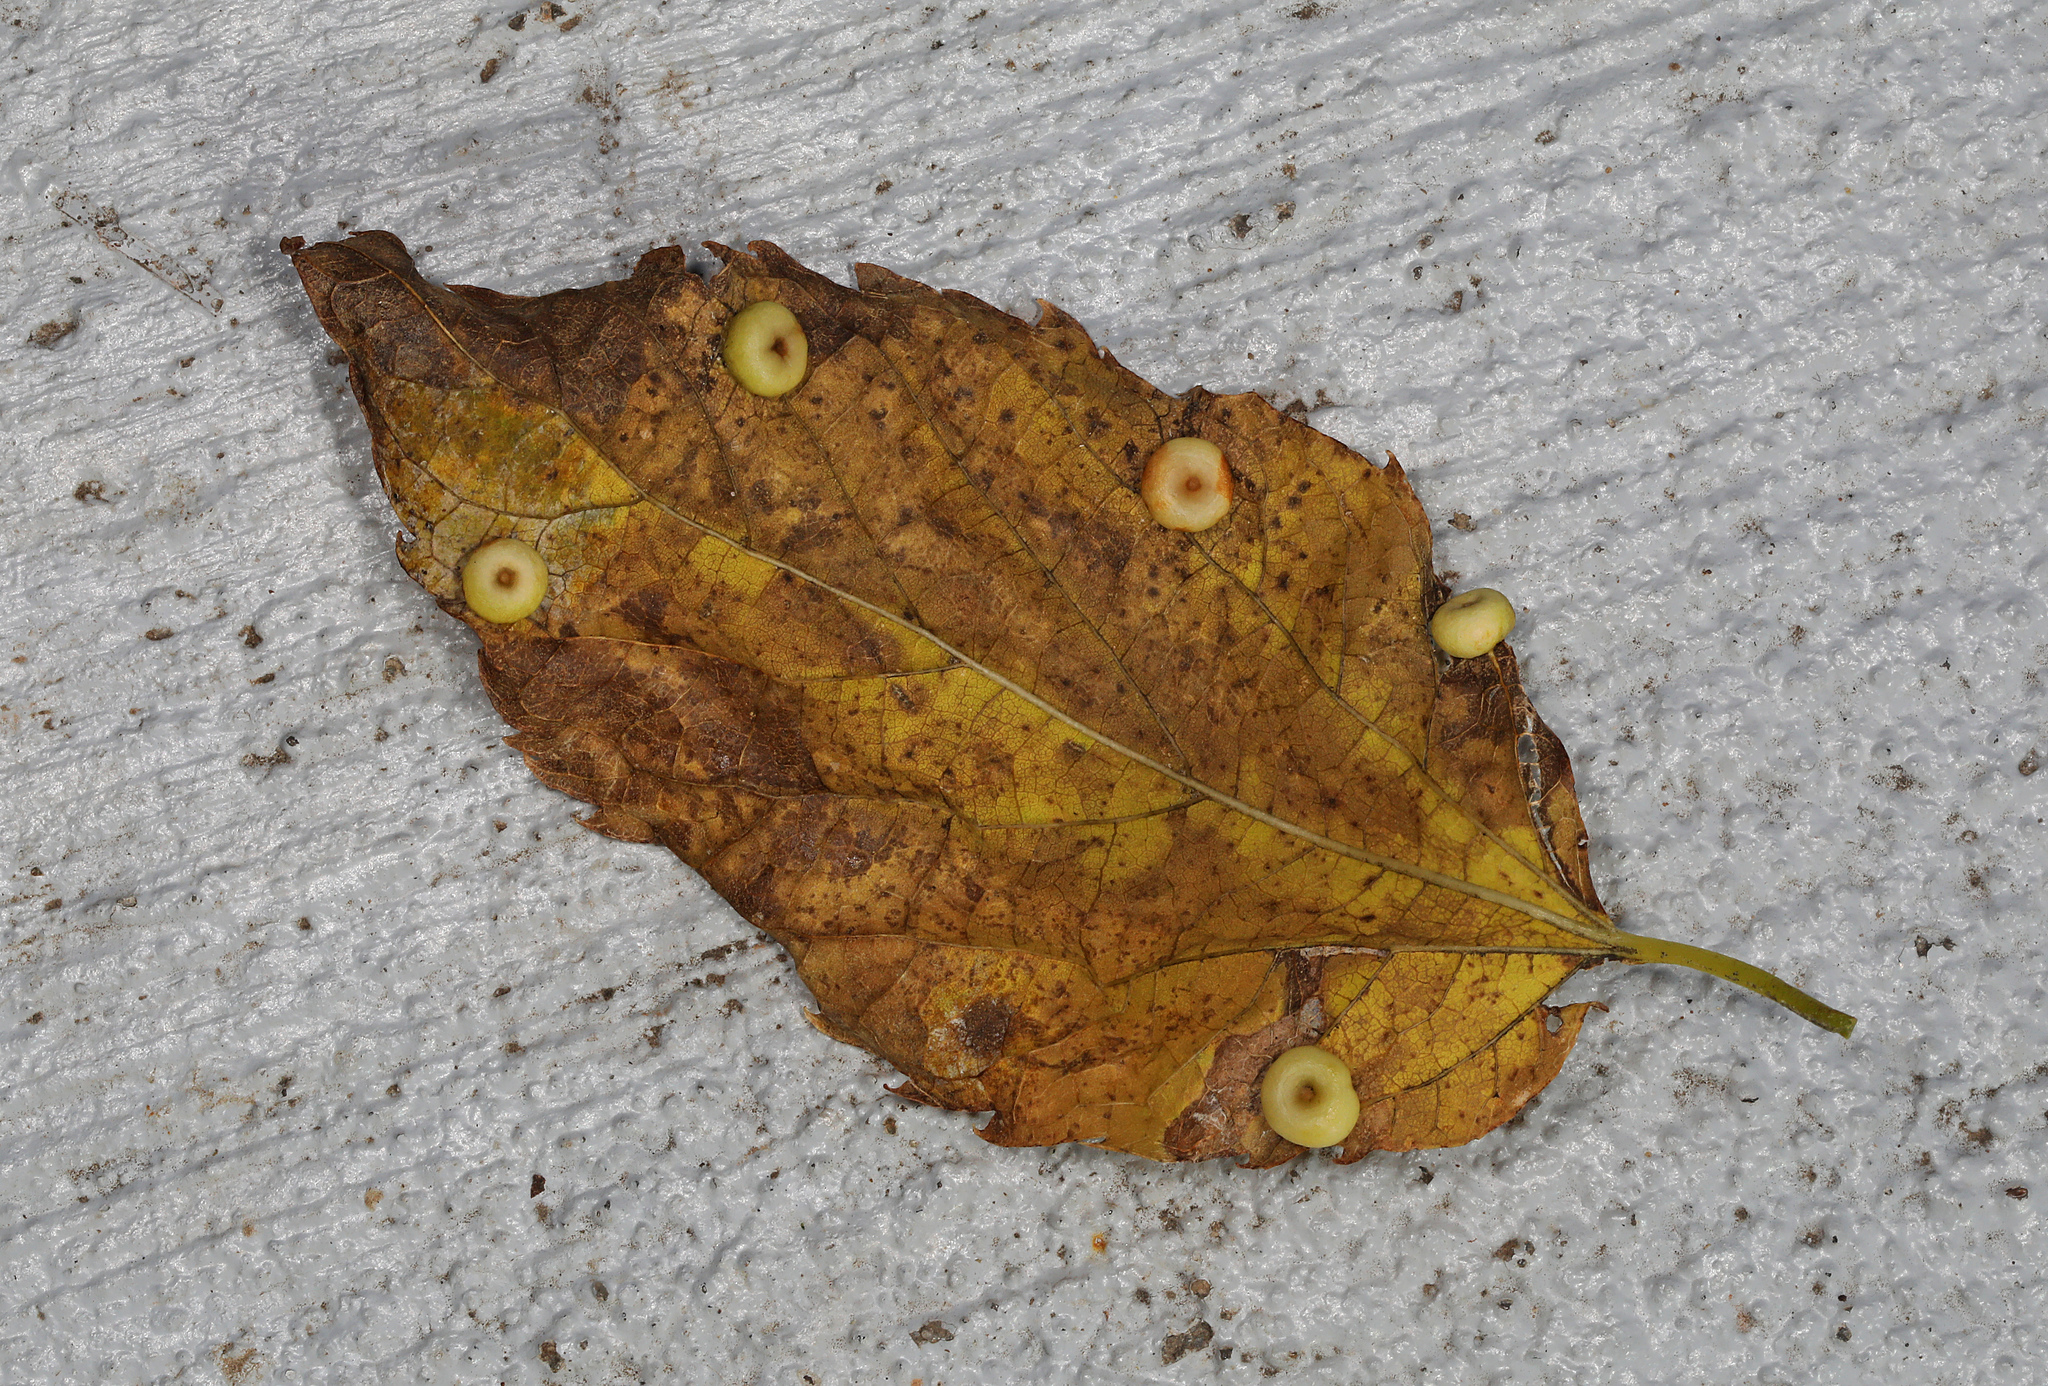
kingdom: Animalia
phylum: Arthropoda
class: Insecta
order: Hemiptera
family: Aphalaridae
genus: Pachypsylla
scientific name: Pachypsylla celtidismamma
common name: Hackberry nipplegall psyllid
